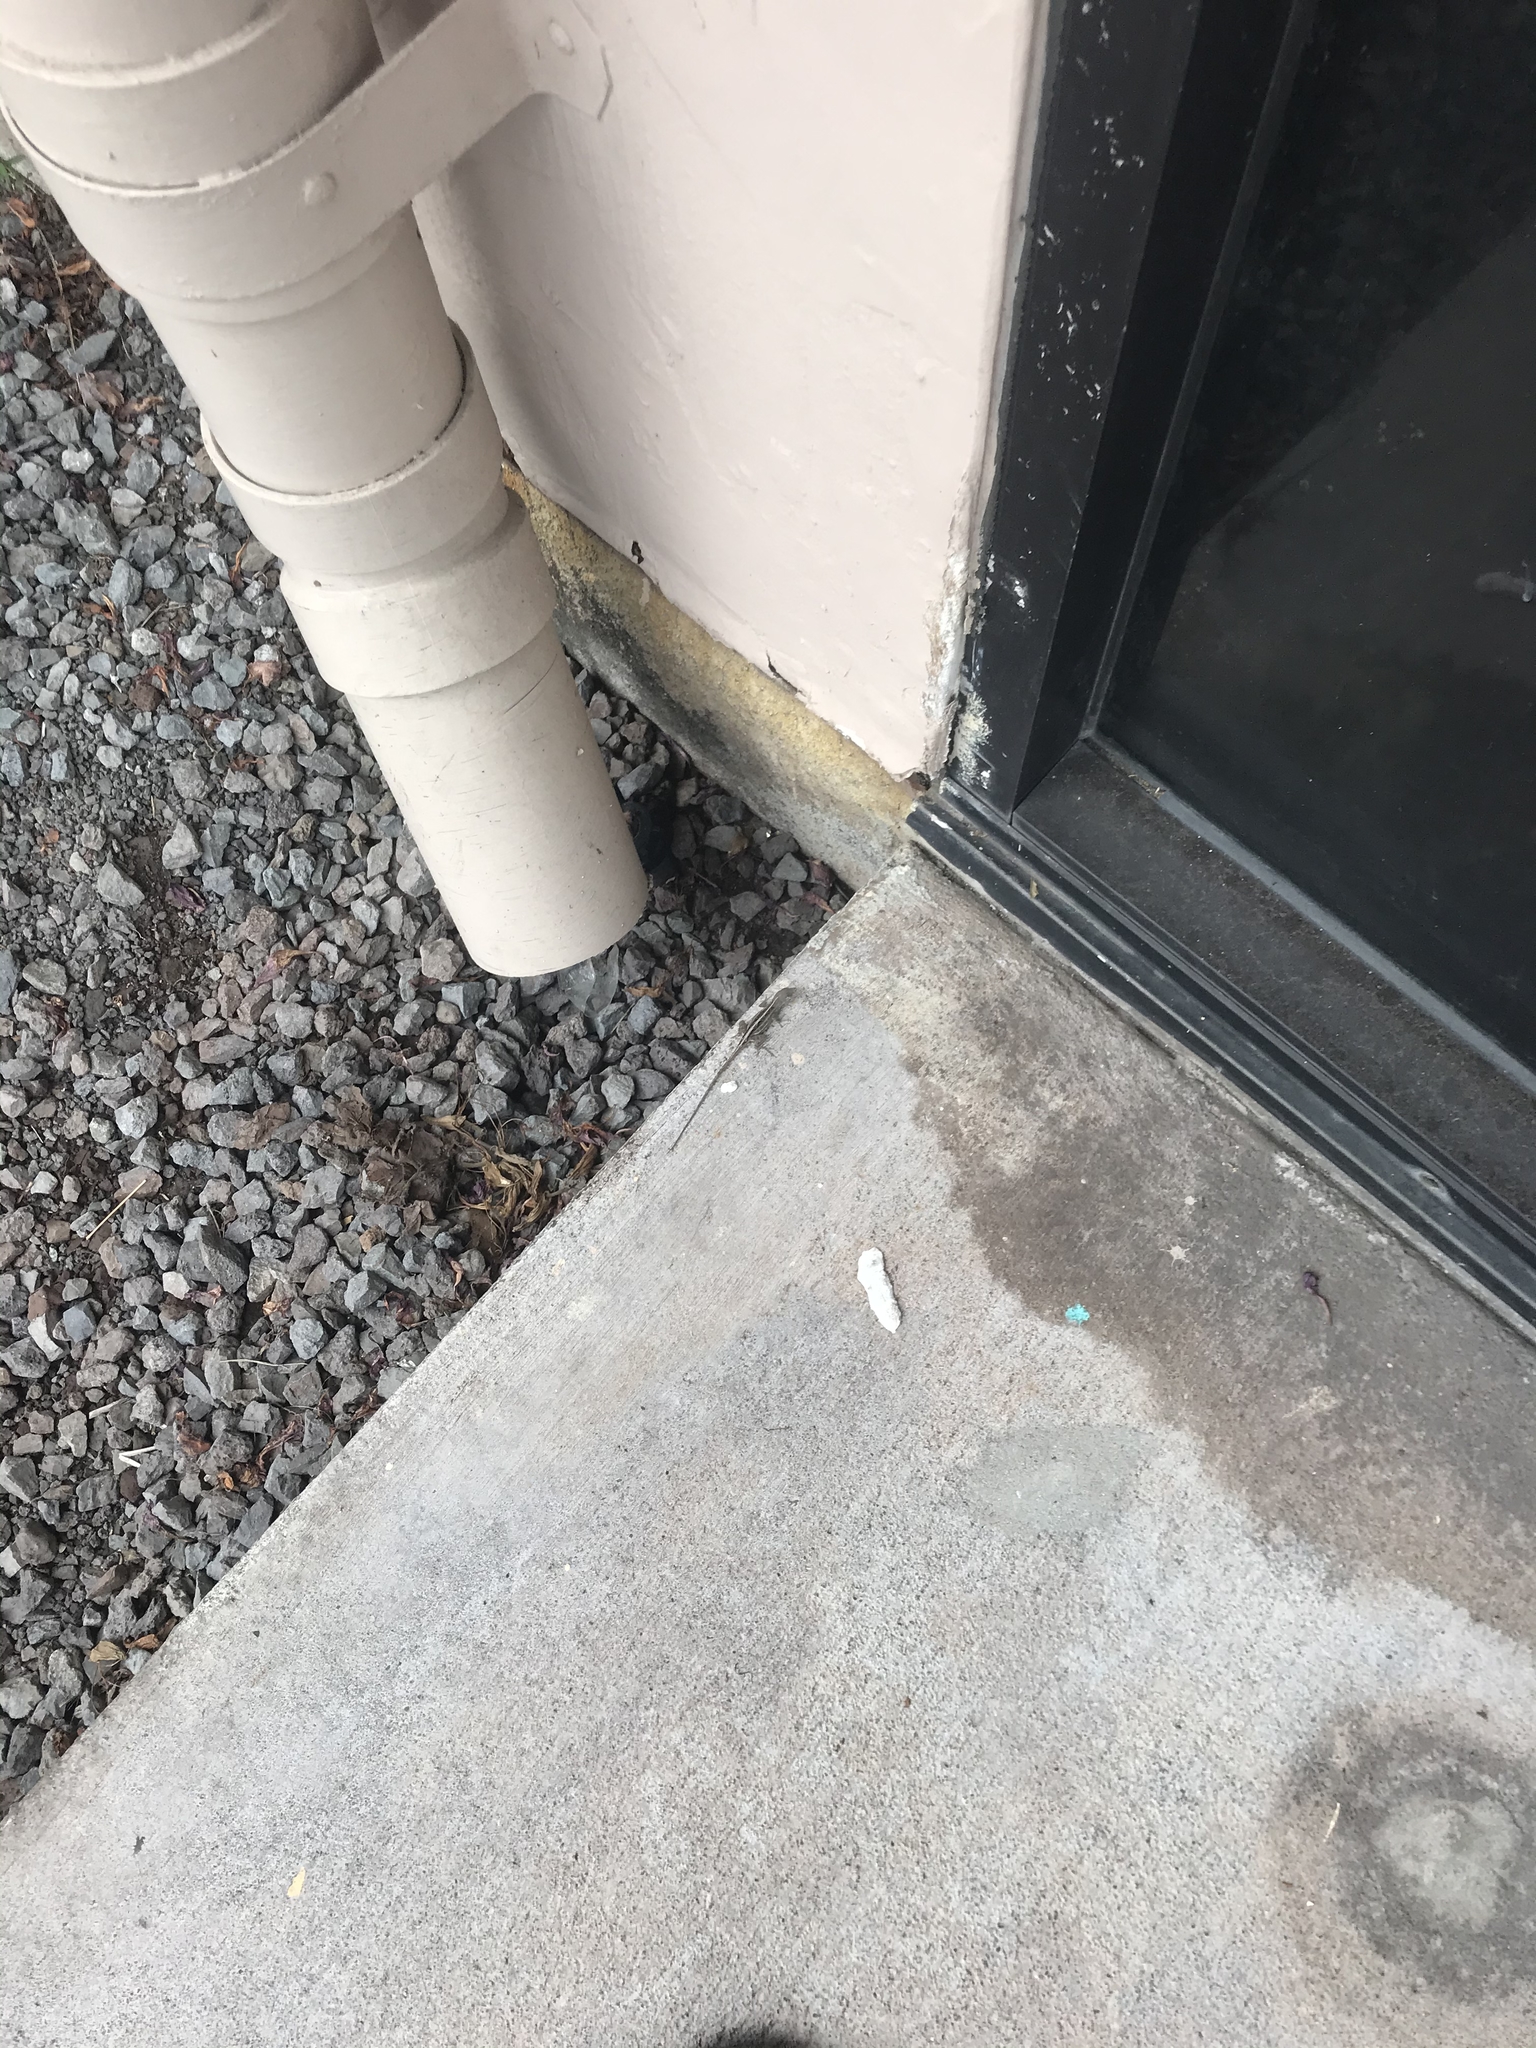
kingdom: Animalia
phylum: Chordata
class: Squamata
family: Dactyloidae
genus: Anolis
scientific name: Anolis sagrei
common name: Brown anole
